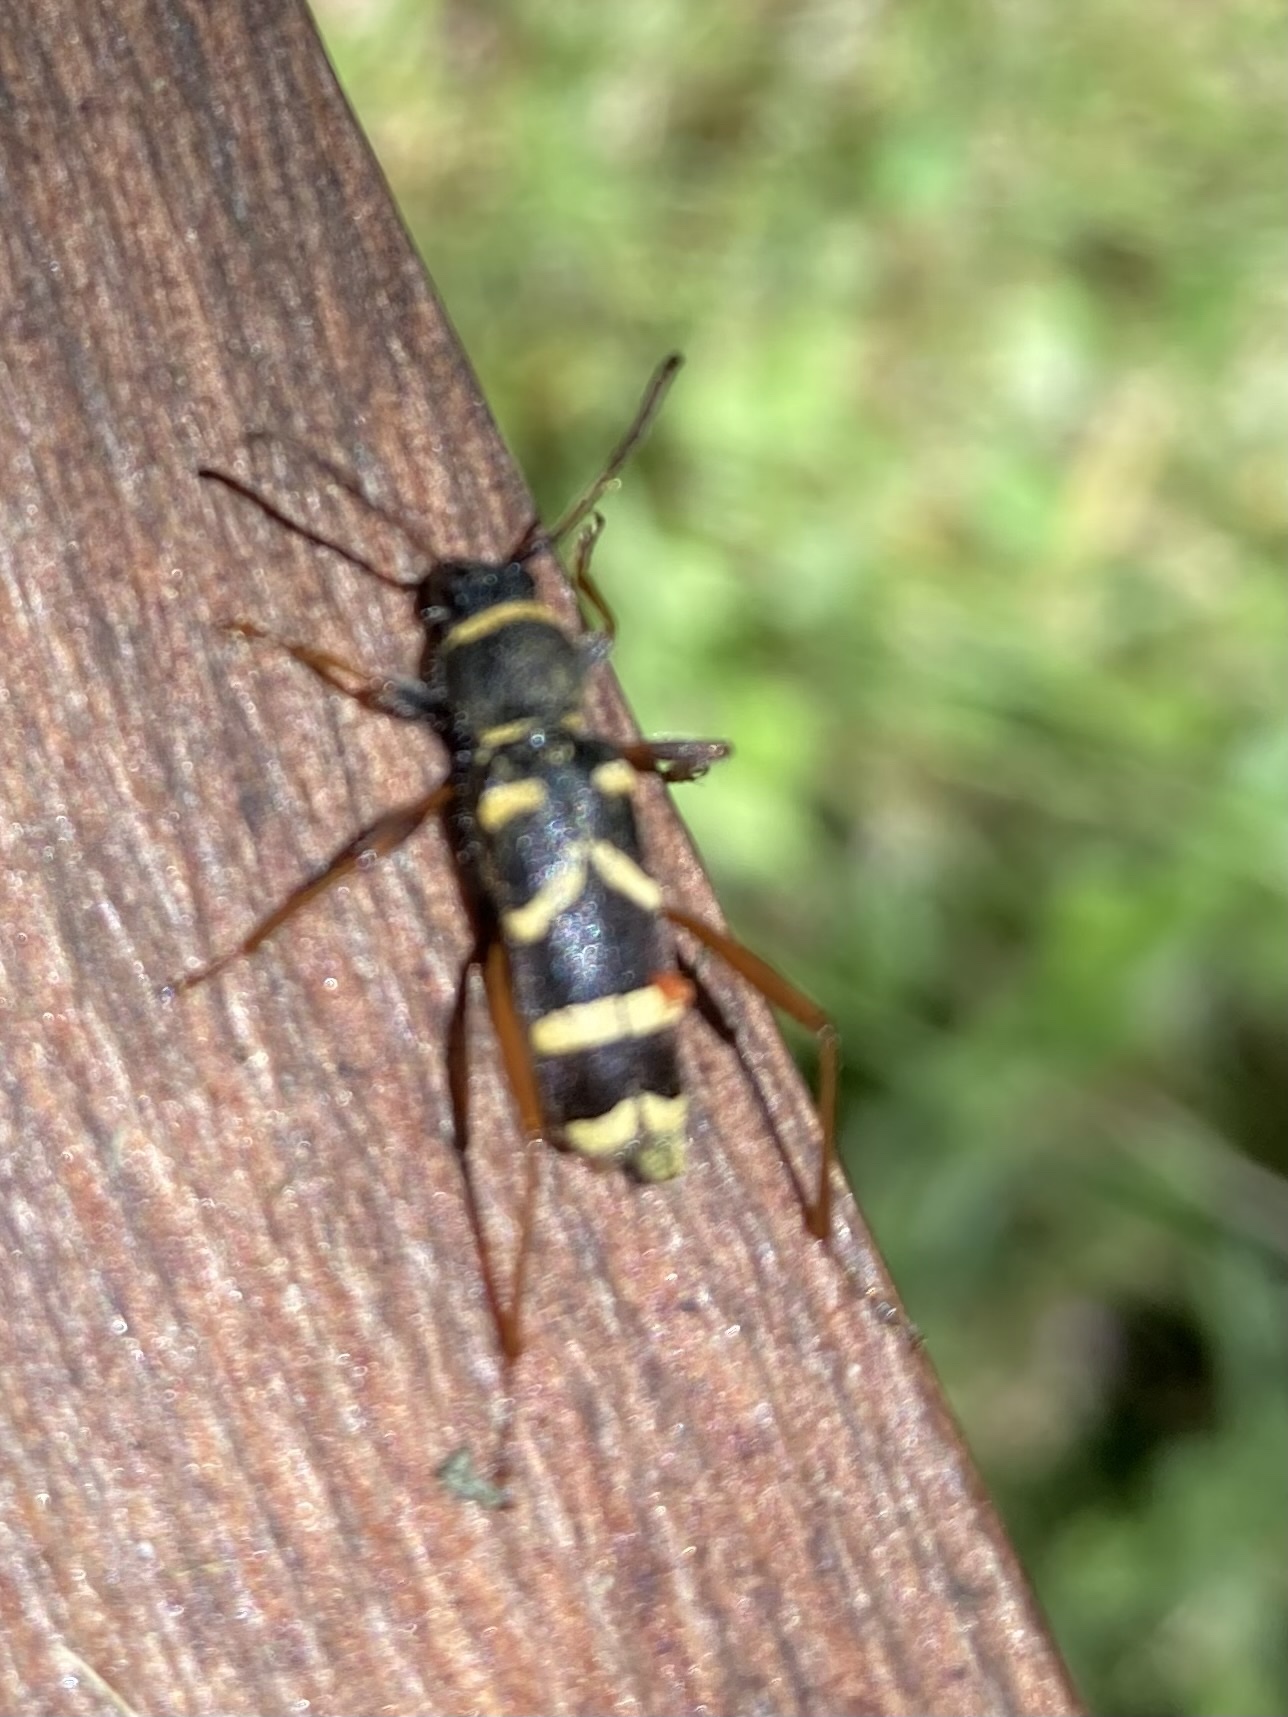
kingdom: Animalia
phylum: Arthropoda
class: Insecta
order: Coleoptera
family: Cerambycidae
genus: Clytus
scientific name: Clytus arietis
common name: Wasp beetle
